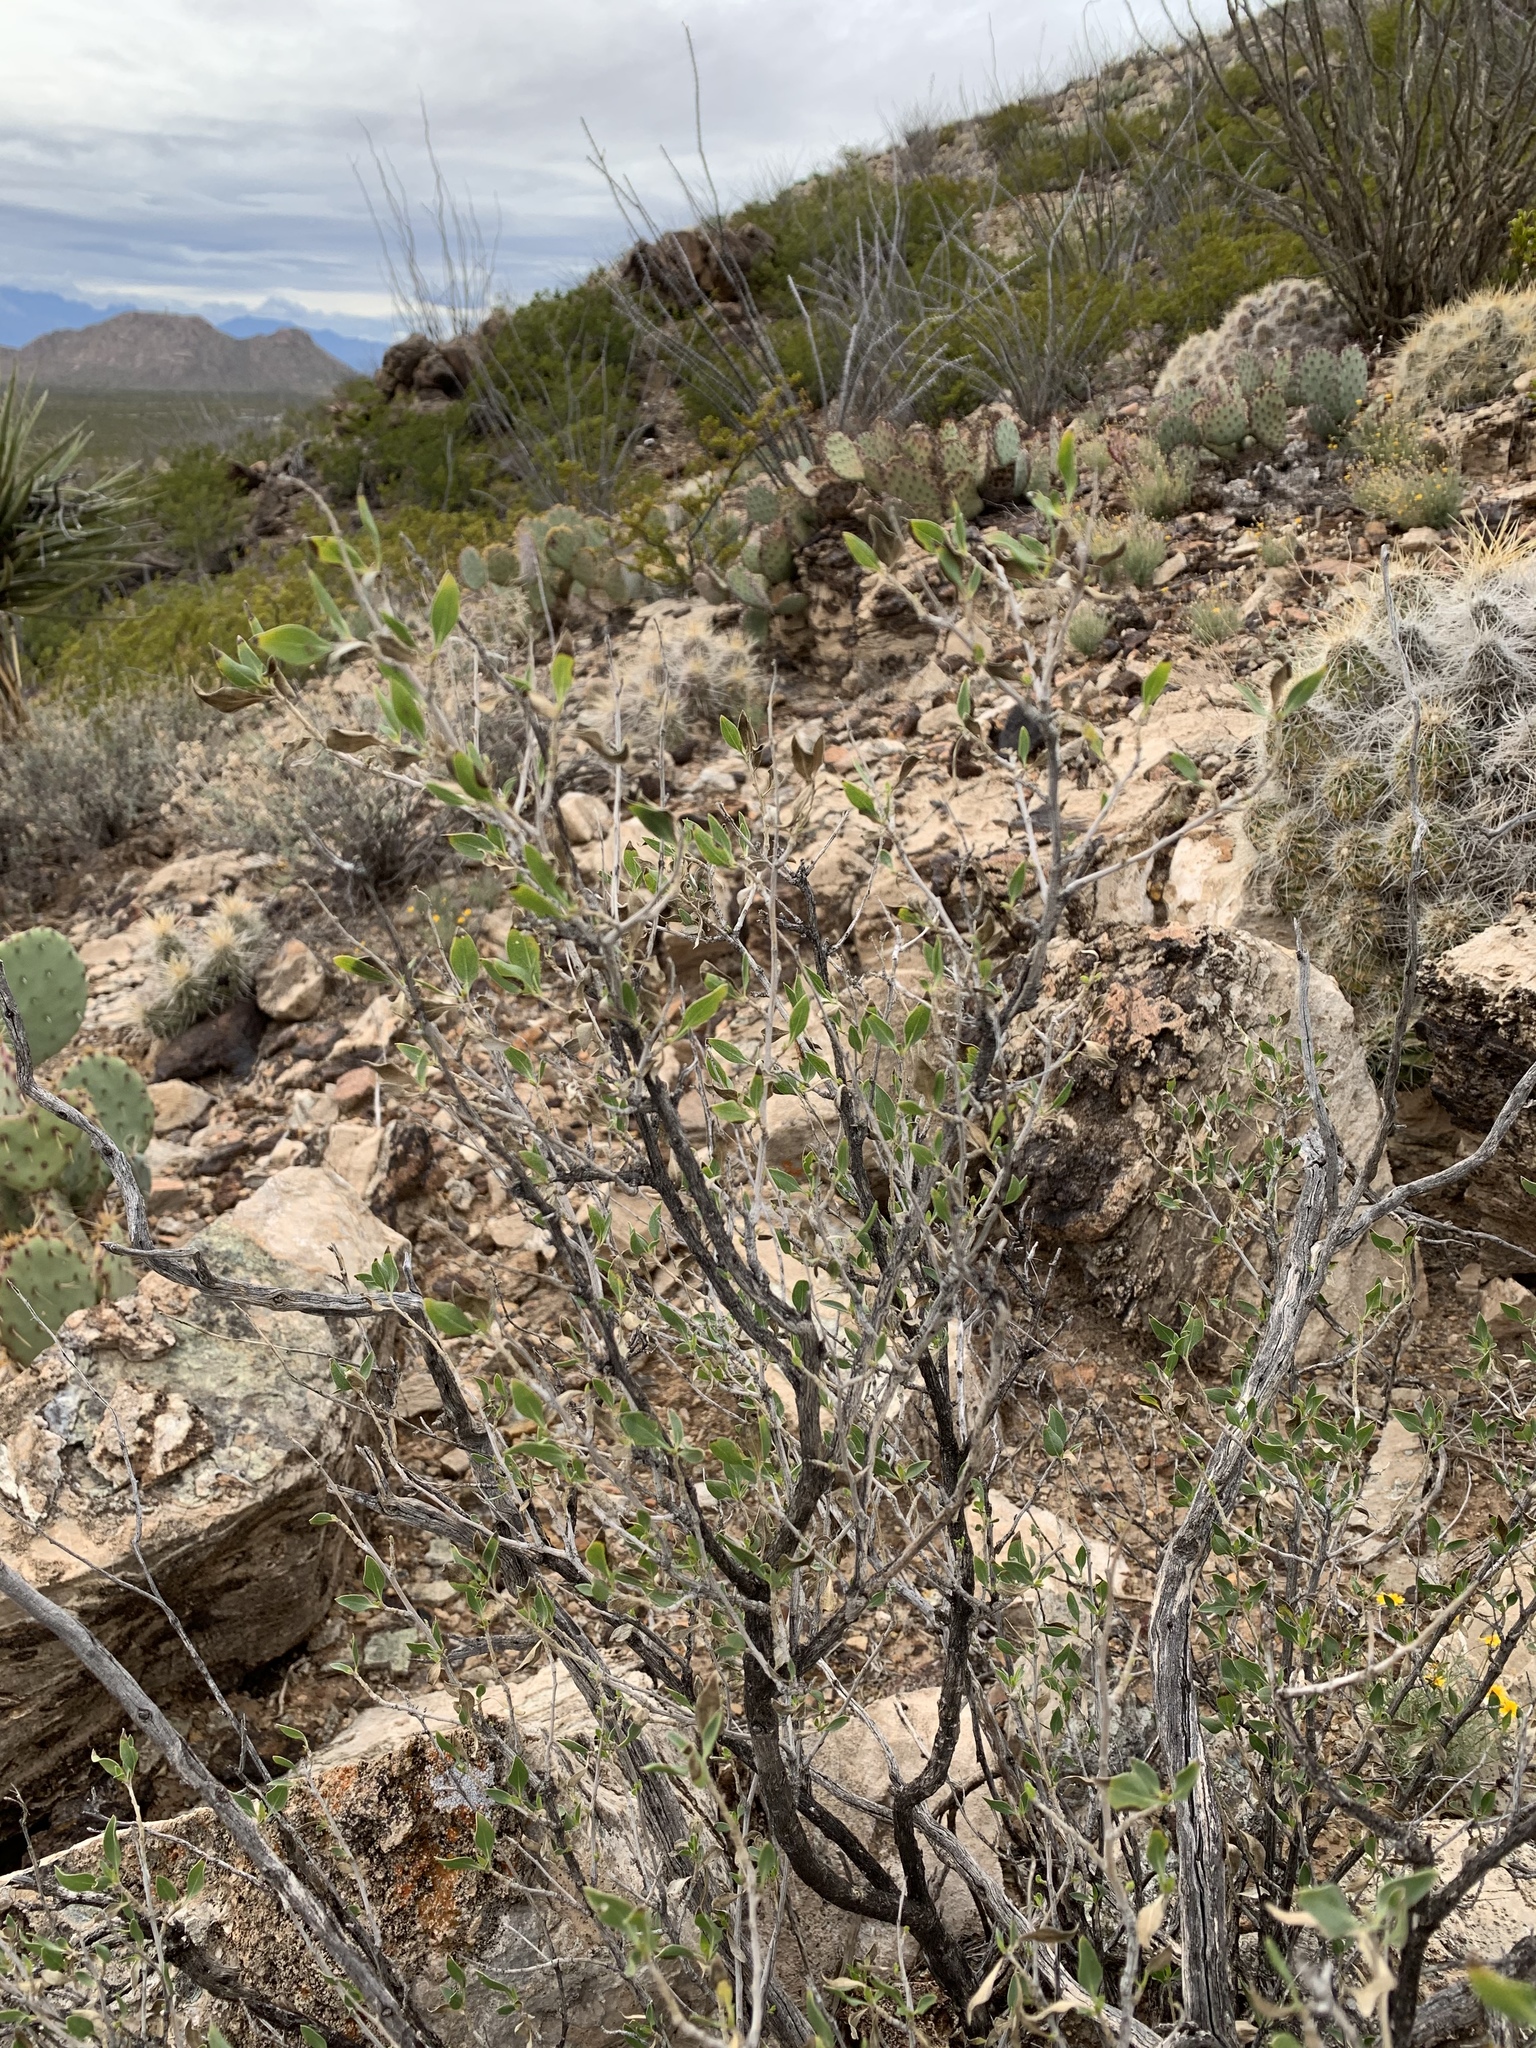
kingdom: Plantae
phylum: Tracheophyta
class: Magnoliopsida
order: Asterales
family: Asteraceae
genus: Flourensia
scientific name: Flourensia cernua
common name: Varnishbush
